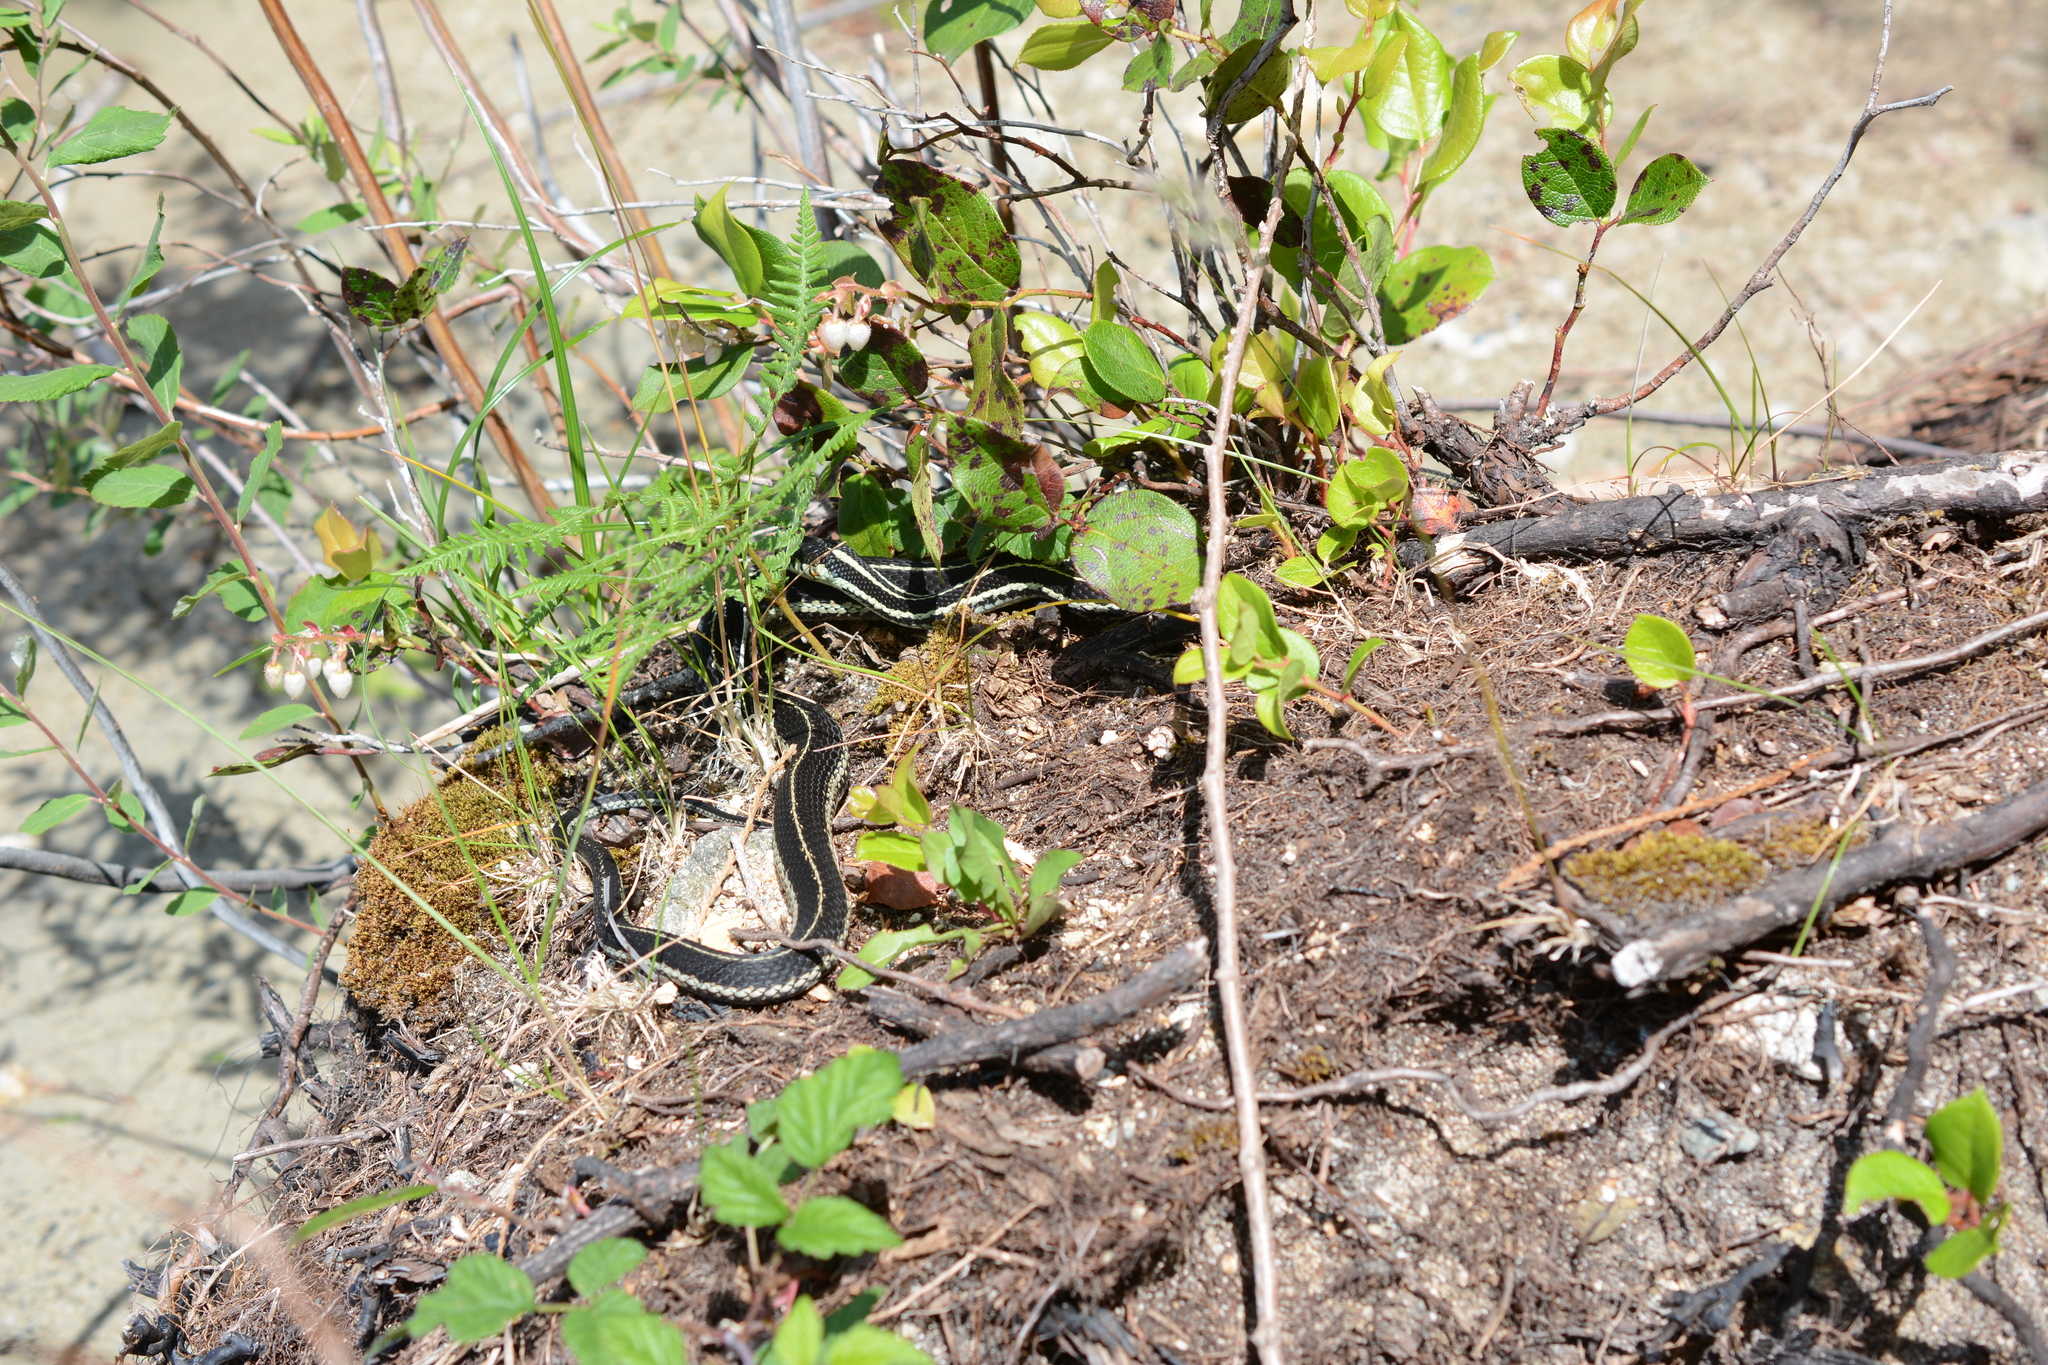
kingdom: Animalia
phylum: Chordata
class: Squamata
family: Colubridae
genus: Thamnophis
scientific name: Thamnophis sirtalis
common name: Common garter snake
